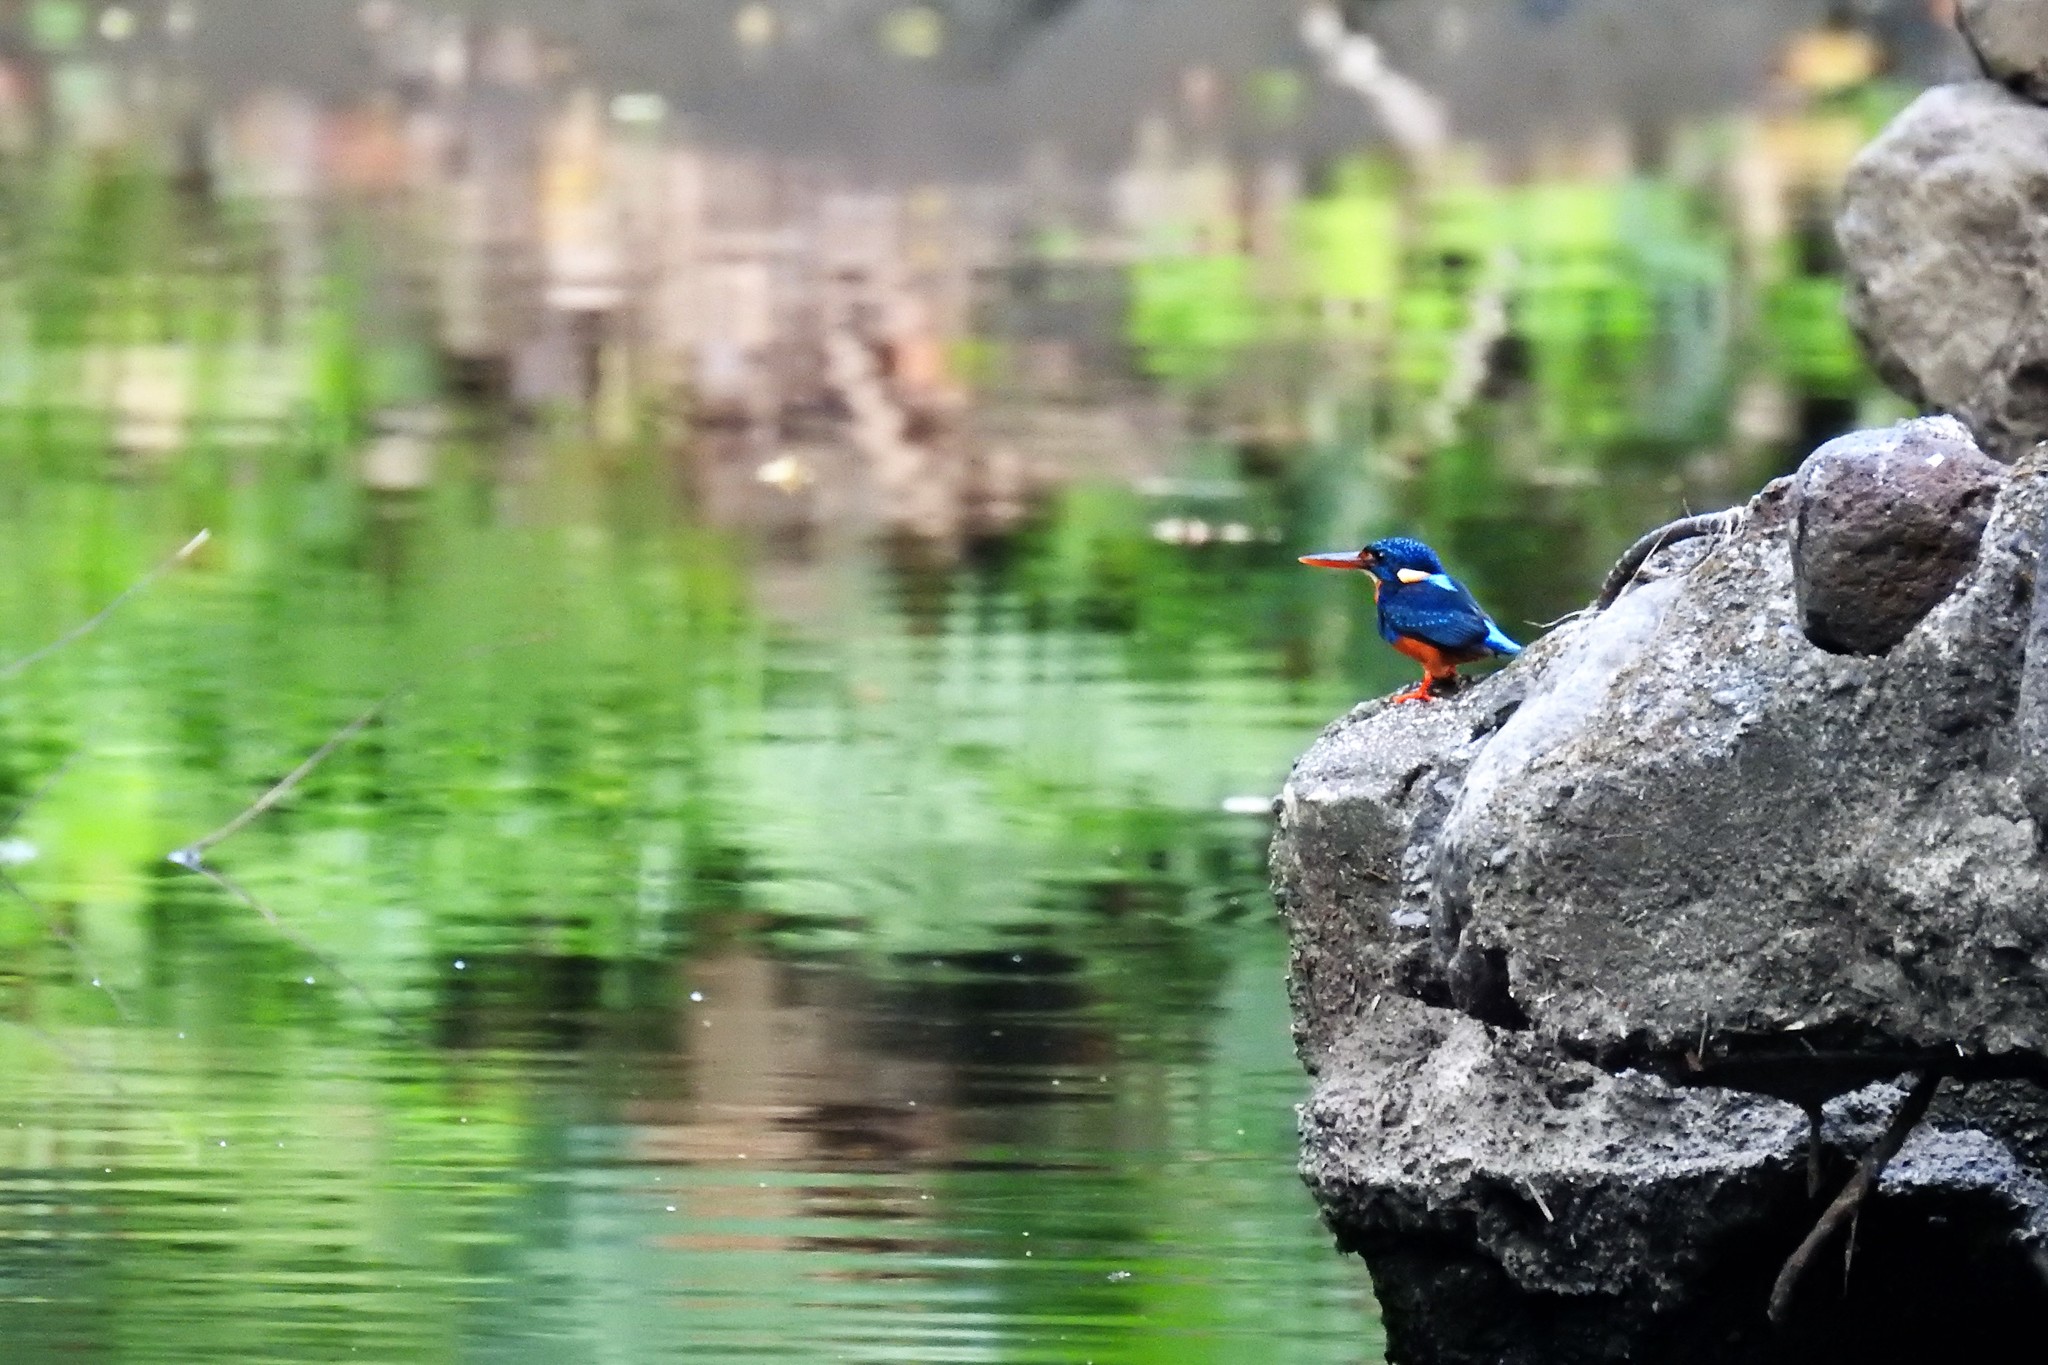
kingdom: Animalia
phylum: Chordata
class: Aves
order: Coraciiformes
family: Alcedinidae
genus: Ceyx
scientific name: Ceyx cyanopectus
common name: Indigo-banded kingfisher
